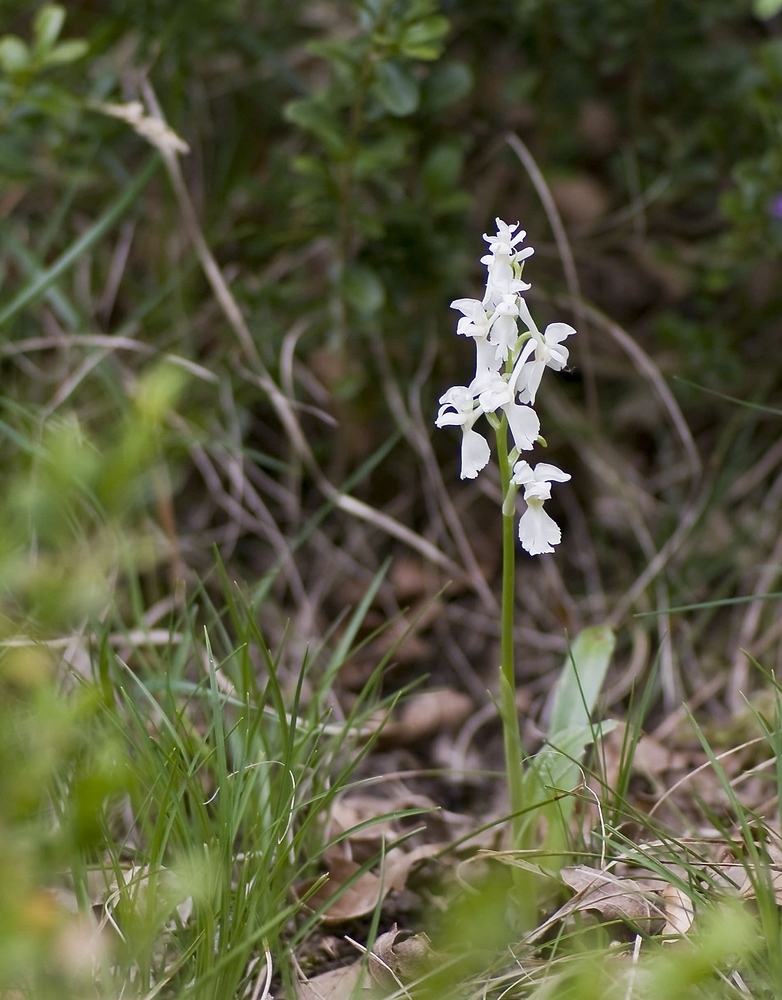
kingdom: Plantae
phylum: Tracheophyta
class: Liliopsida
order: Asparagales
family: Orchidaceae
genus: Orchis
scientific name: Orchis mascula
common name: Early-purple orchid
